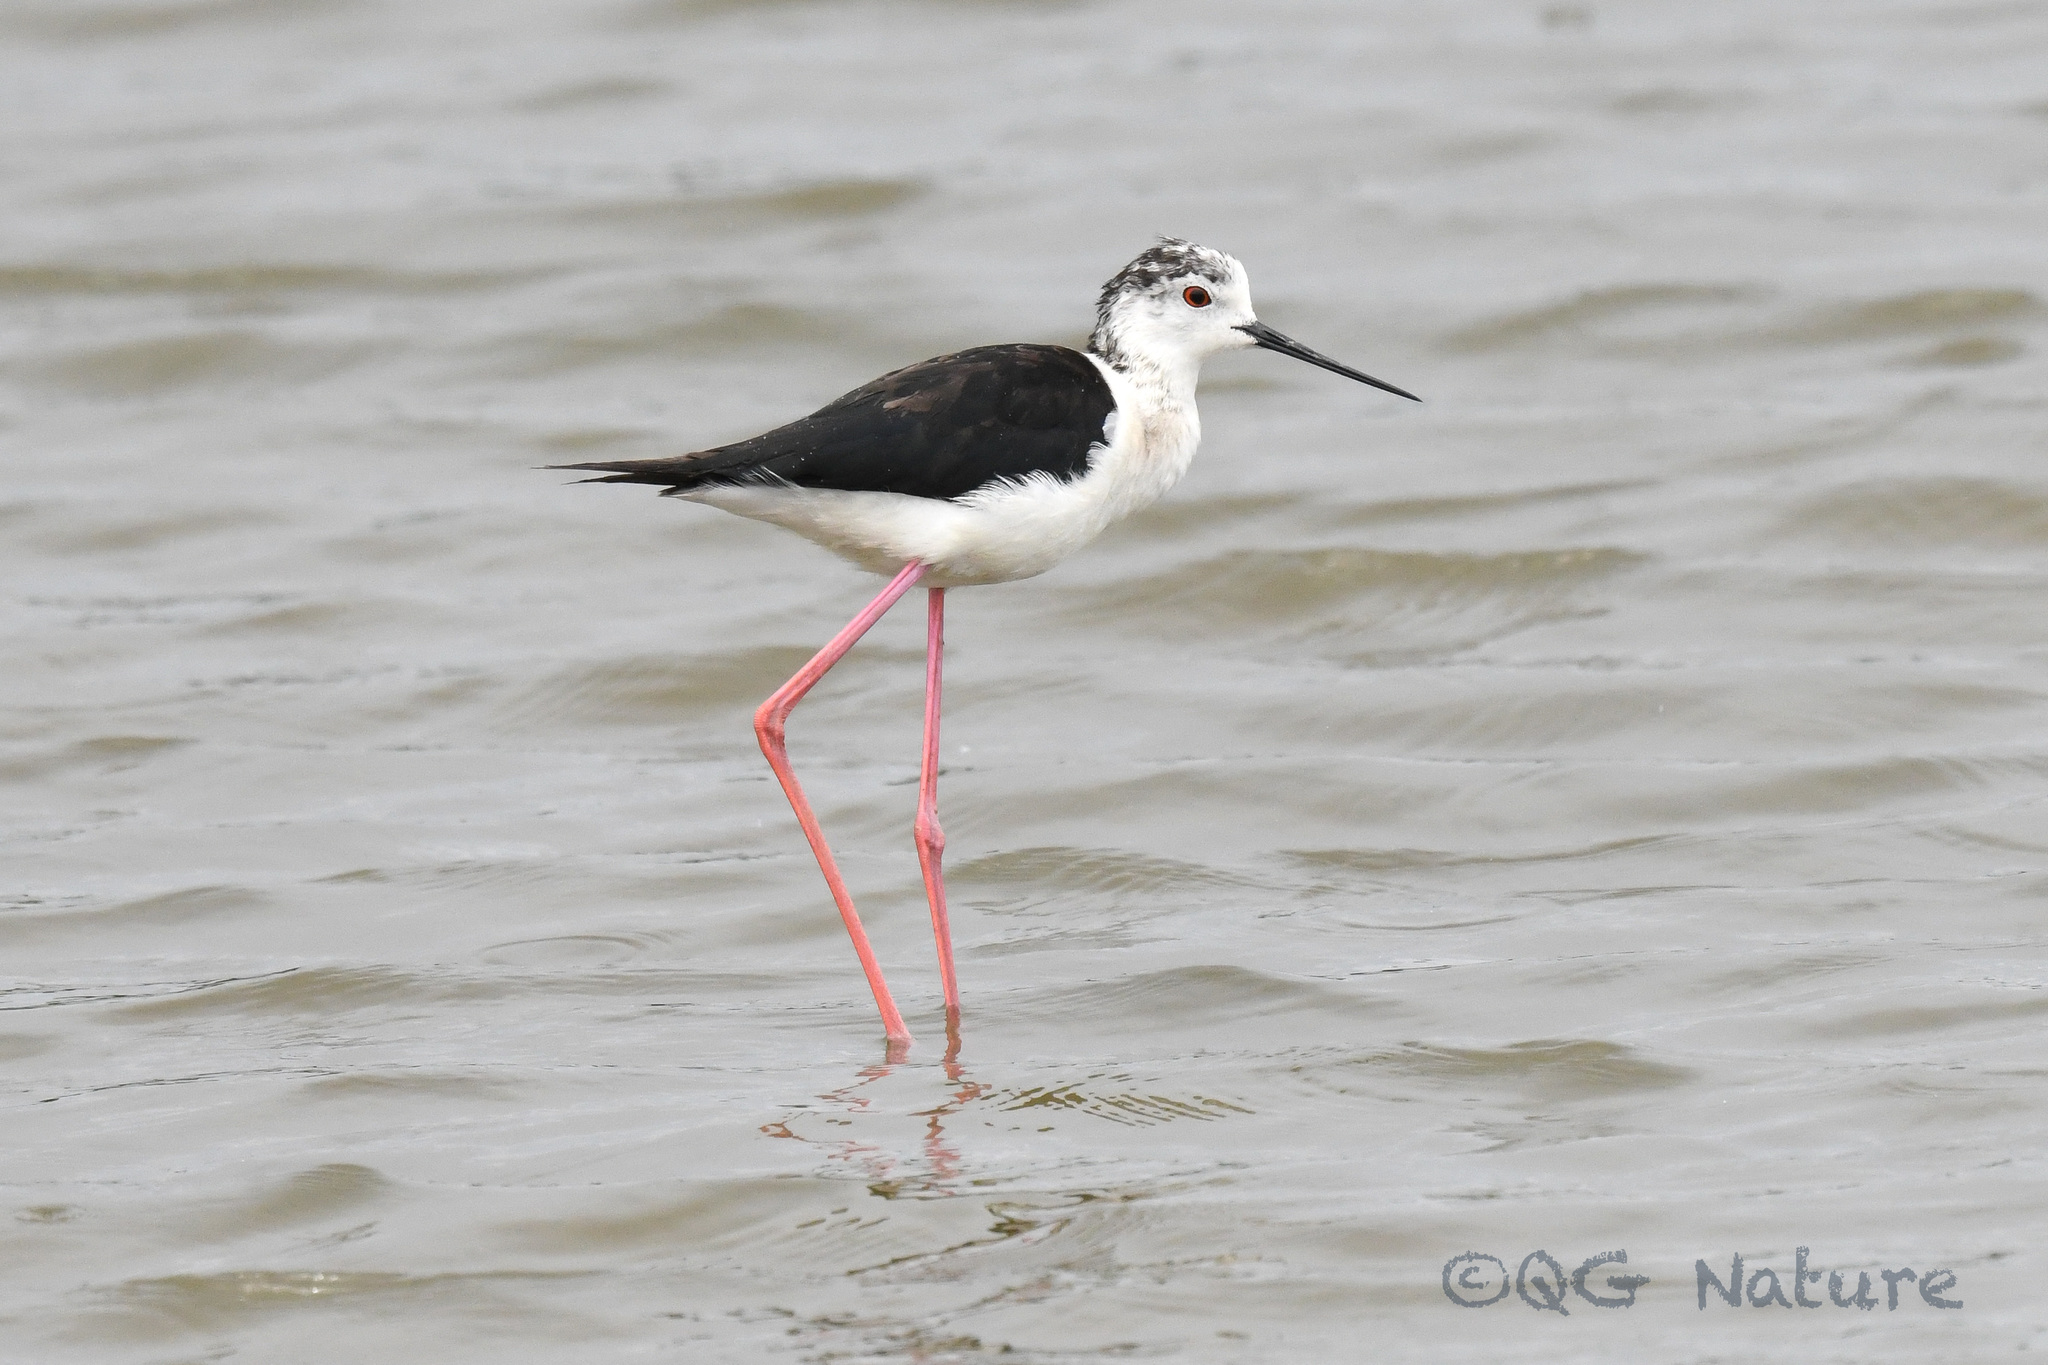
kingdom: Animalia
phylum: Chordata
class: Aves
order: Charadriiformes
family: Recurvirostridae
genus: Himantopus
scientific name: Himantopus himantopus
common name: Black-winged stilt
